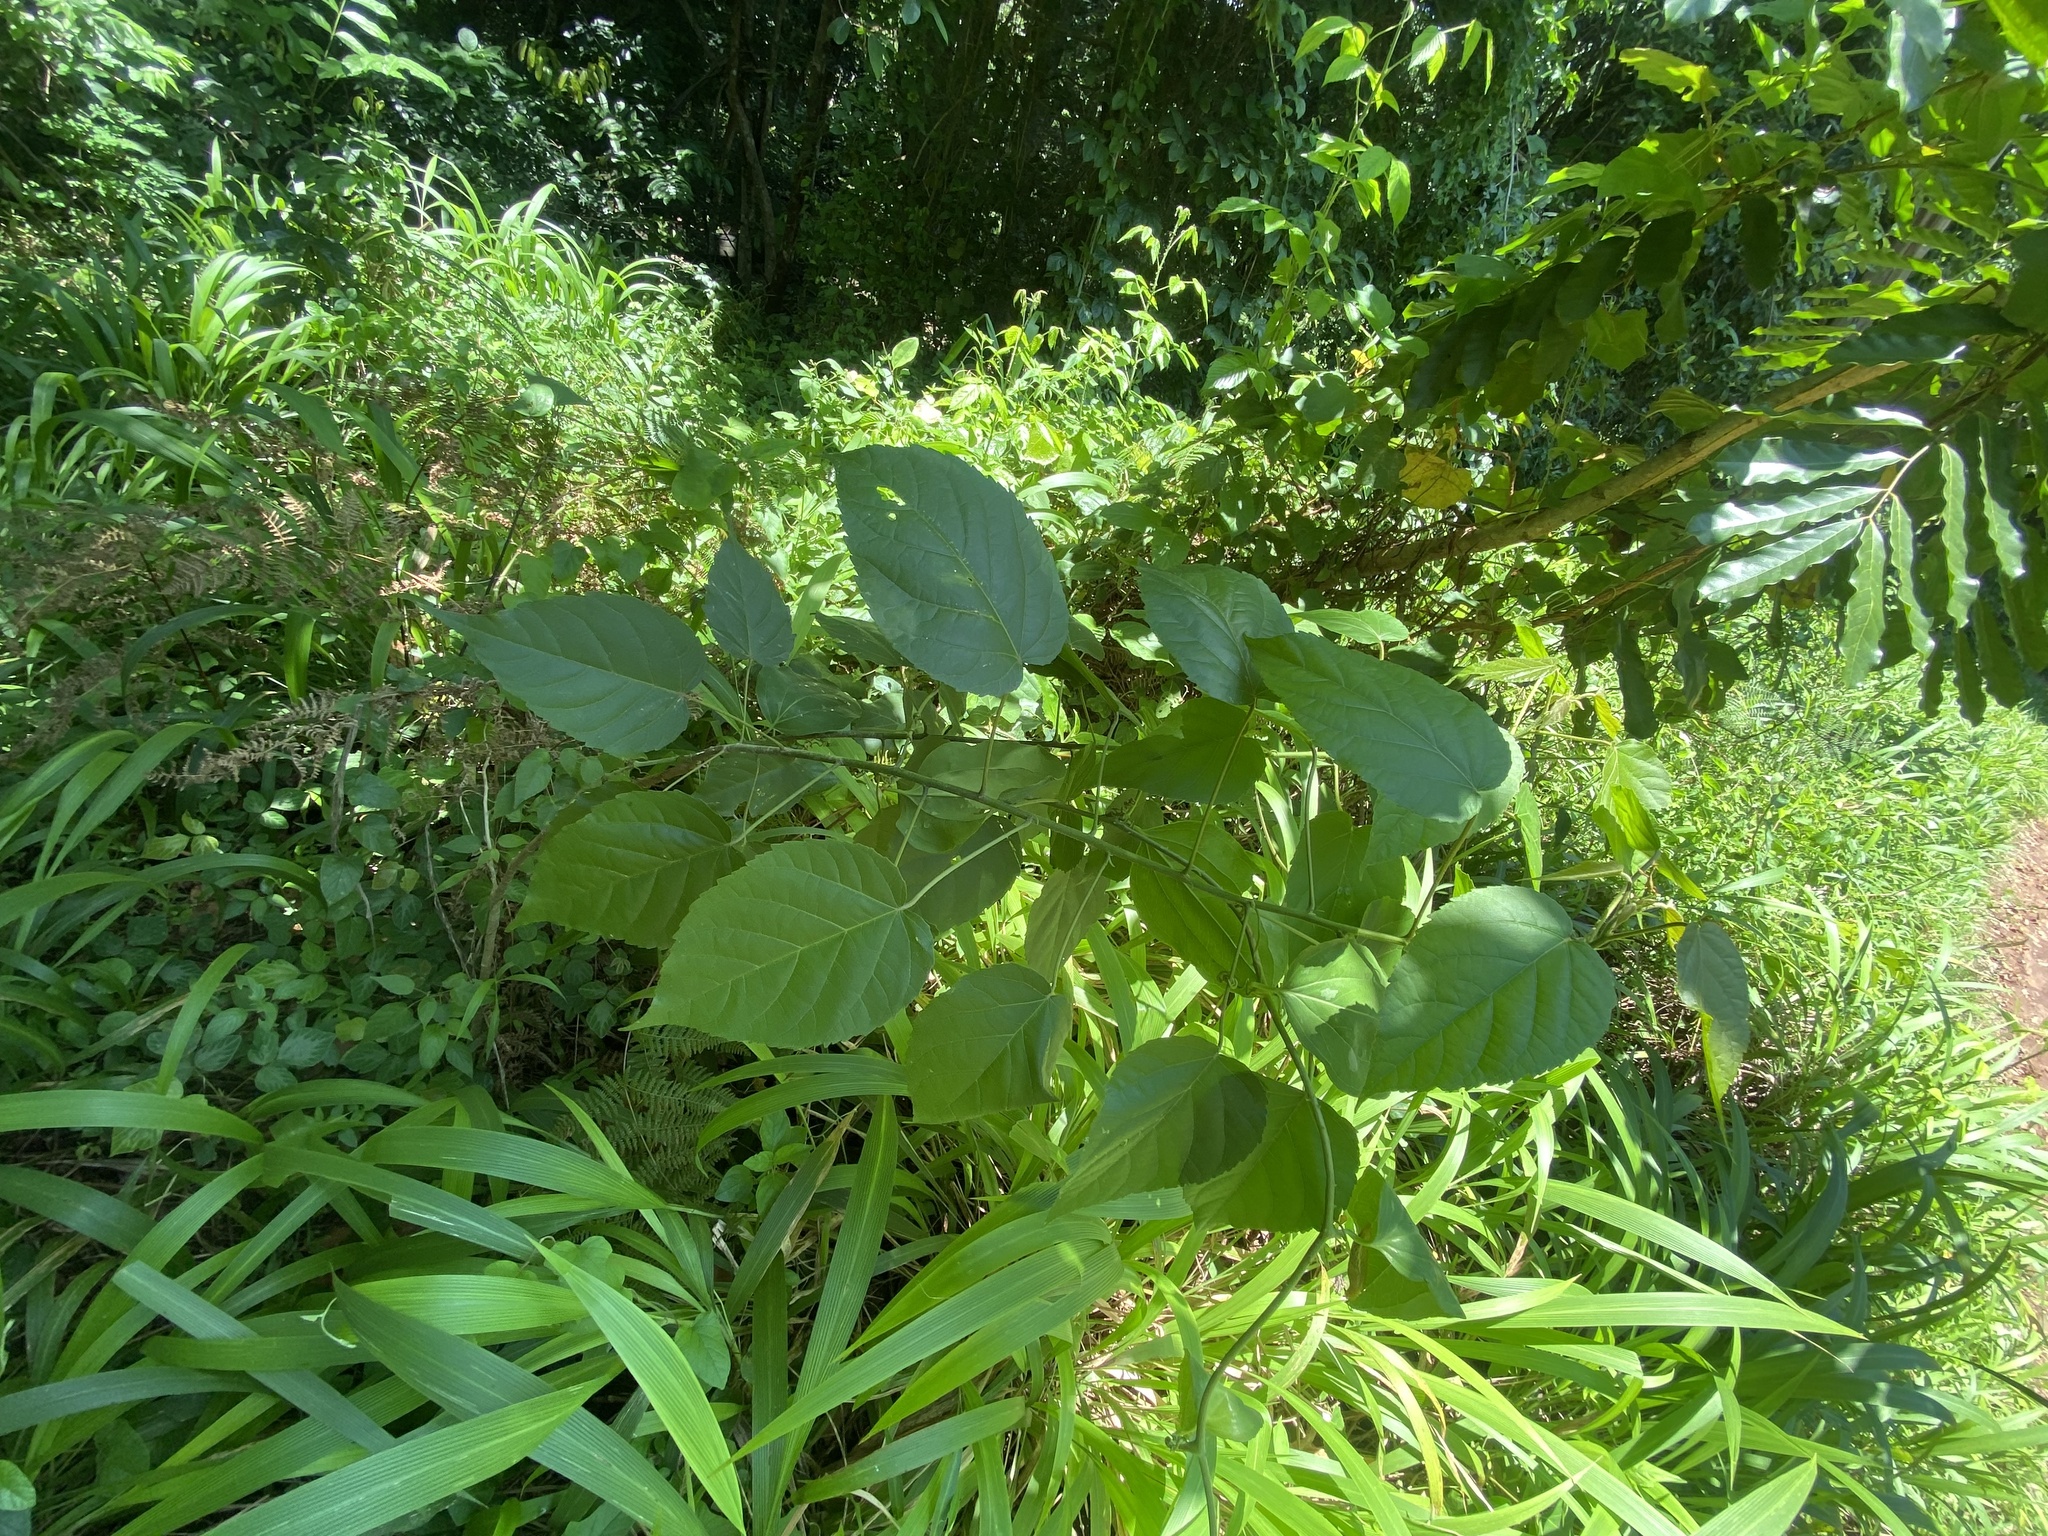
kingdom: Plantae
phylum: Tracheophyta
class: Magnoliopsida
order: Malpighiales
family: Euphorbiaceae
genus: Croton
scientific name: Croton sylvaticus
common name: Forest croton
